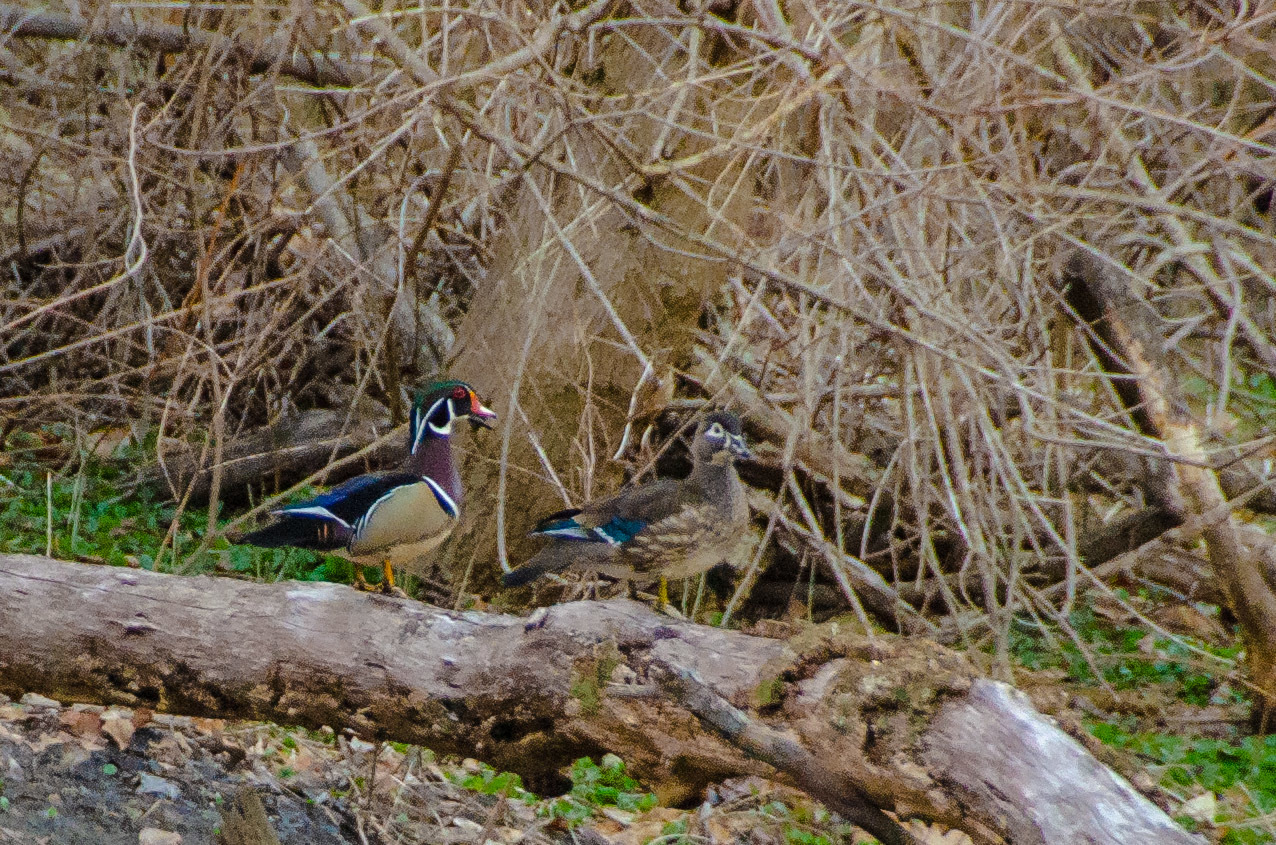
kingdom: Animalia
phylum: Chordata
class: Aves
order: Anseriformes
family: Anatidae
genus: Aix
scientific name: Aix sponsa
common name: Wood duck
